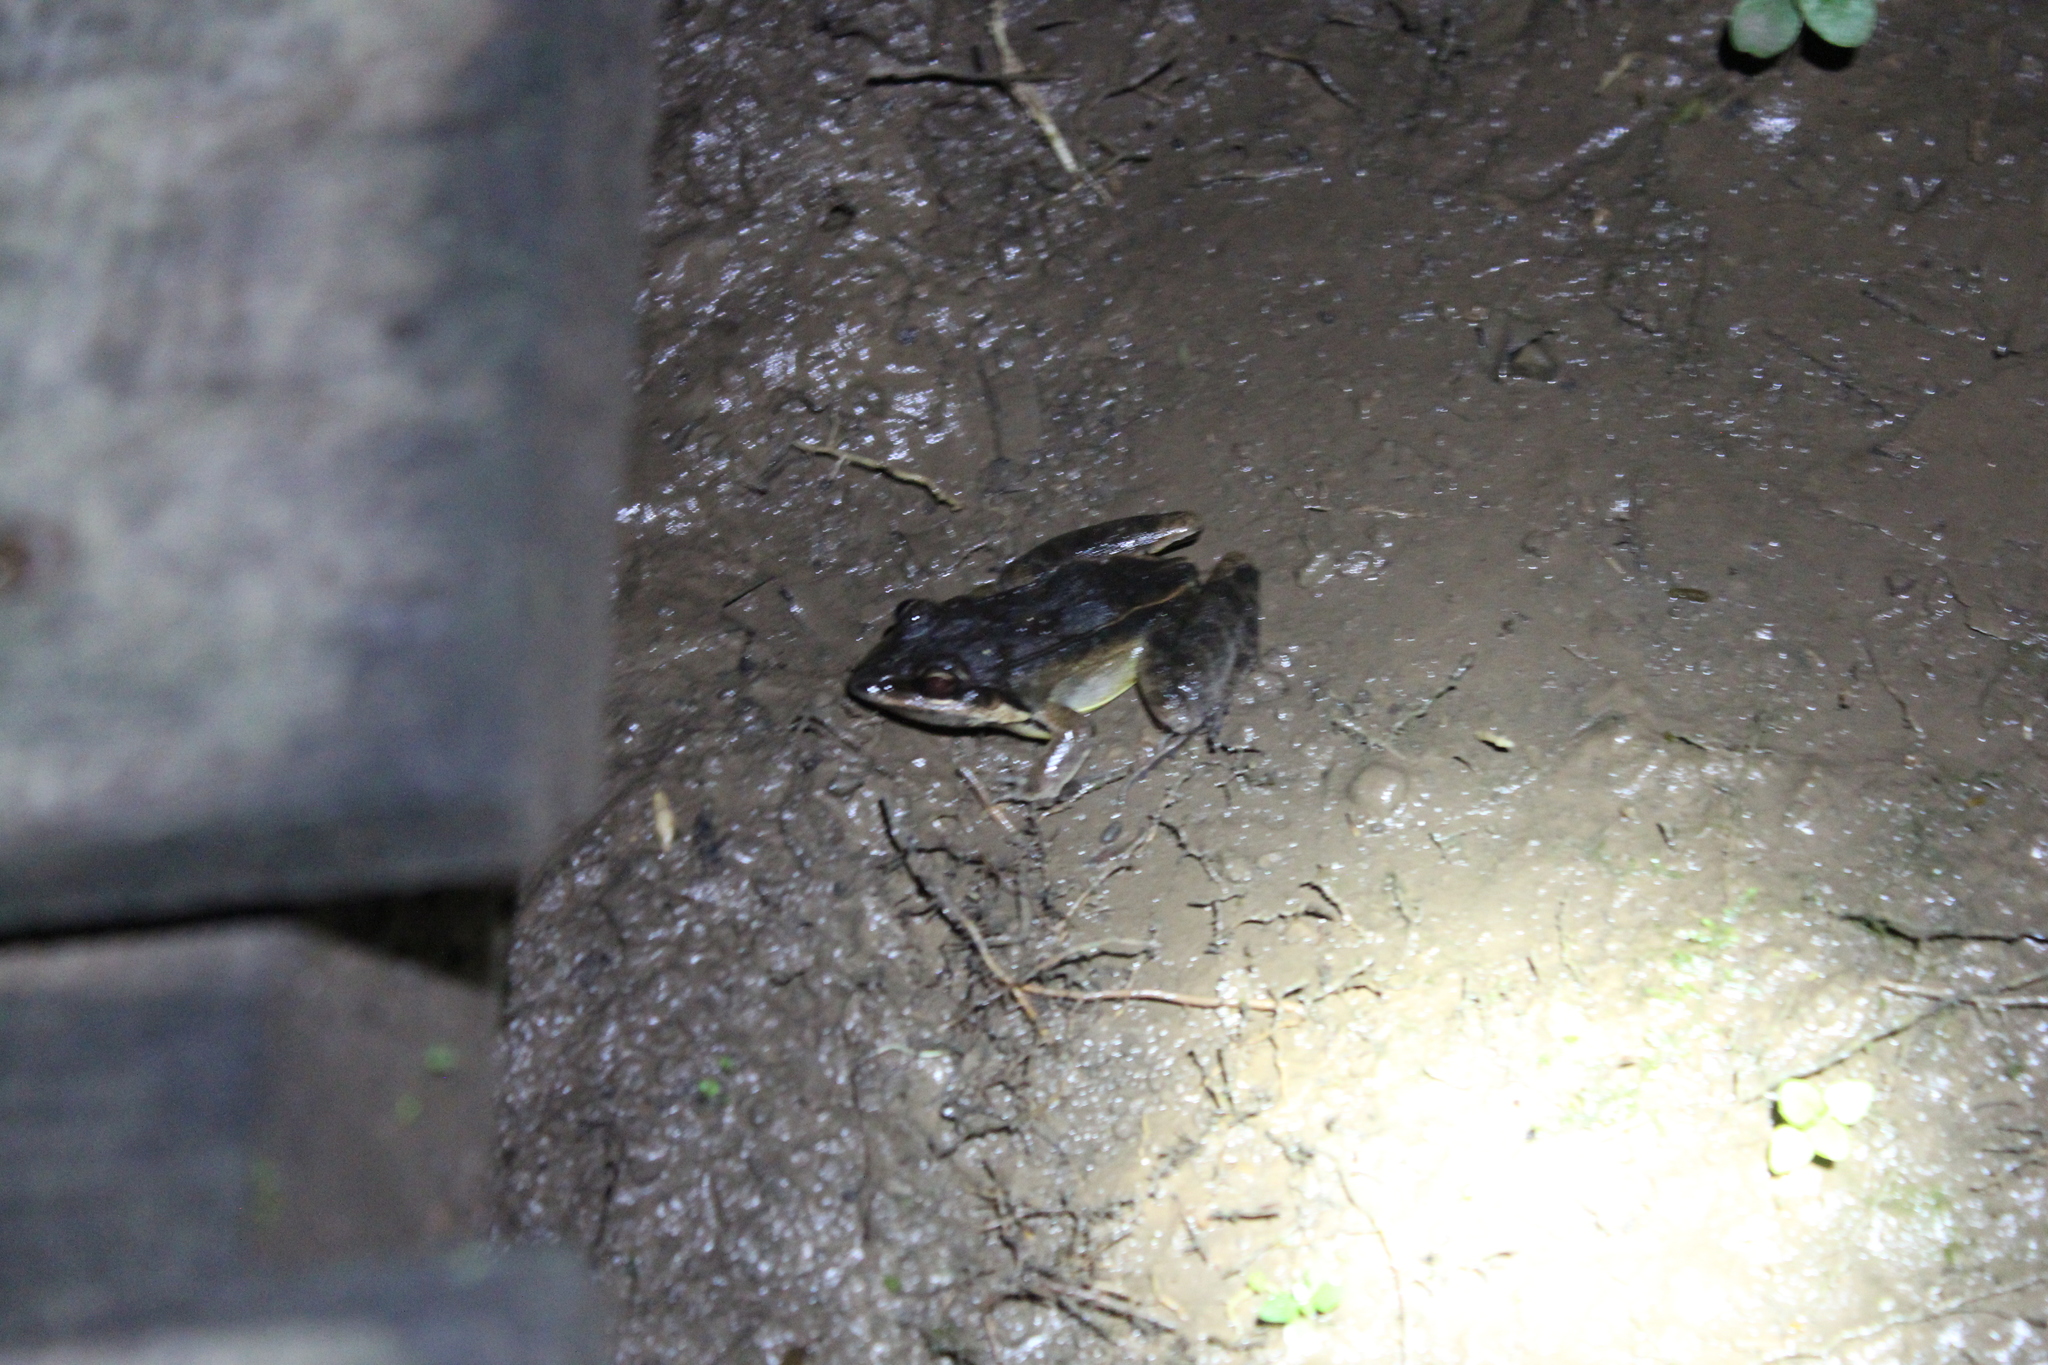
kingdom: Animalia
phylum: Chordata
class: Amphibia
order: Anura
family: Leptodactylidae
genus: Leptodactylus
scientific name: Leptodactylus didymus
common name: Madre de dios thin-toed frog
